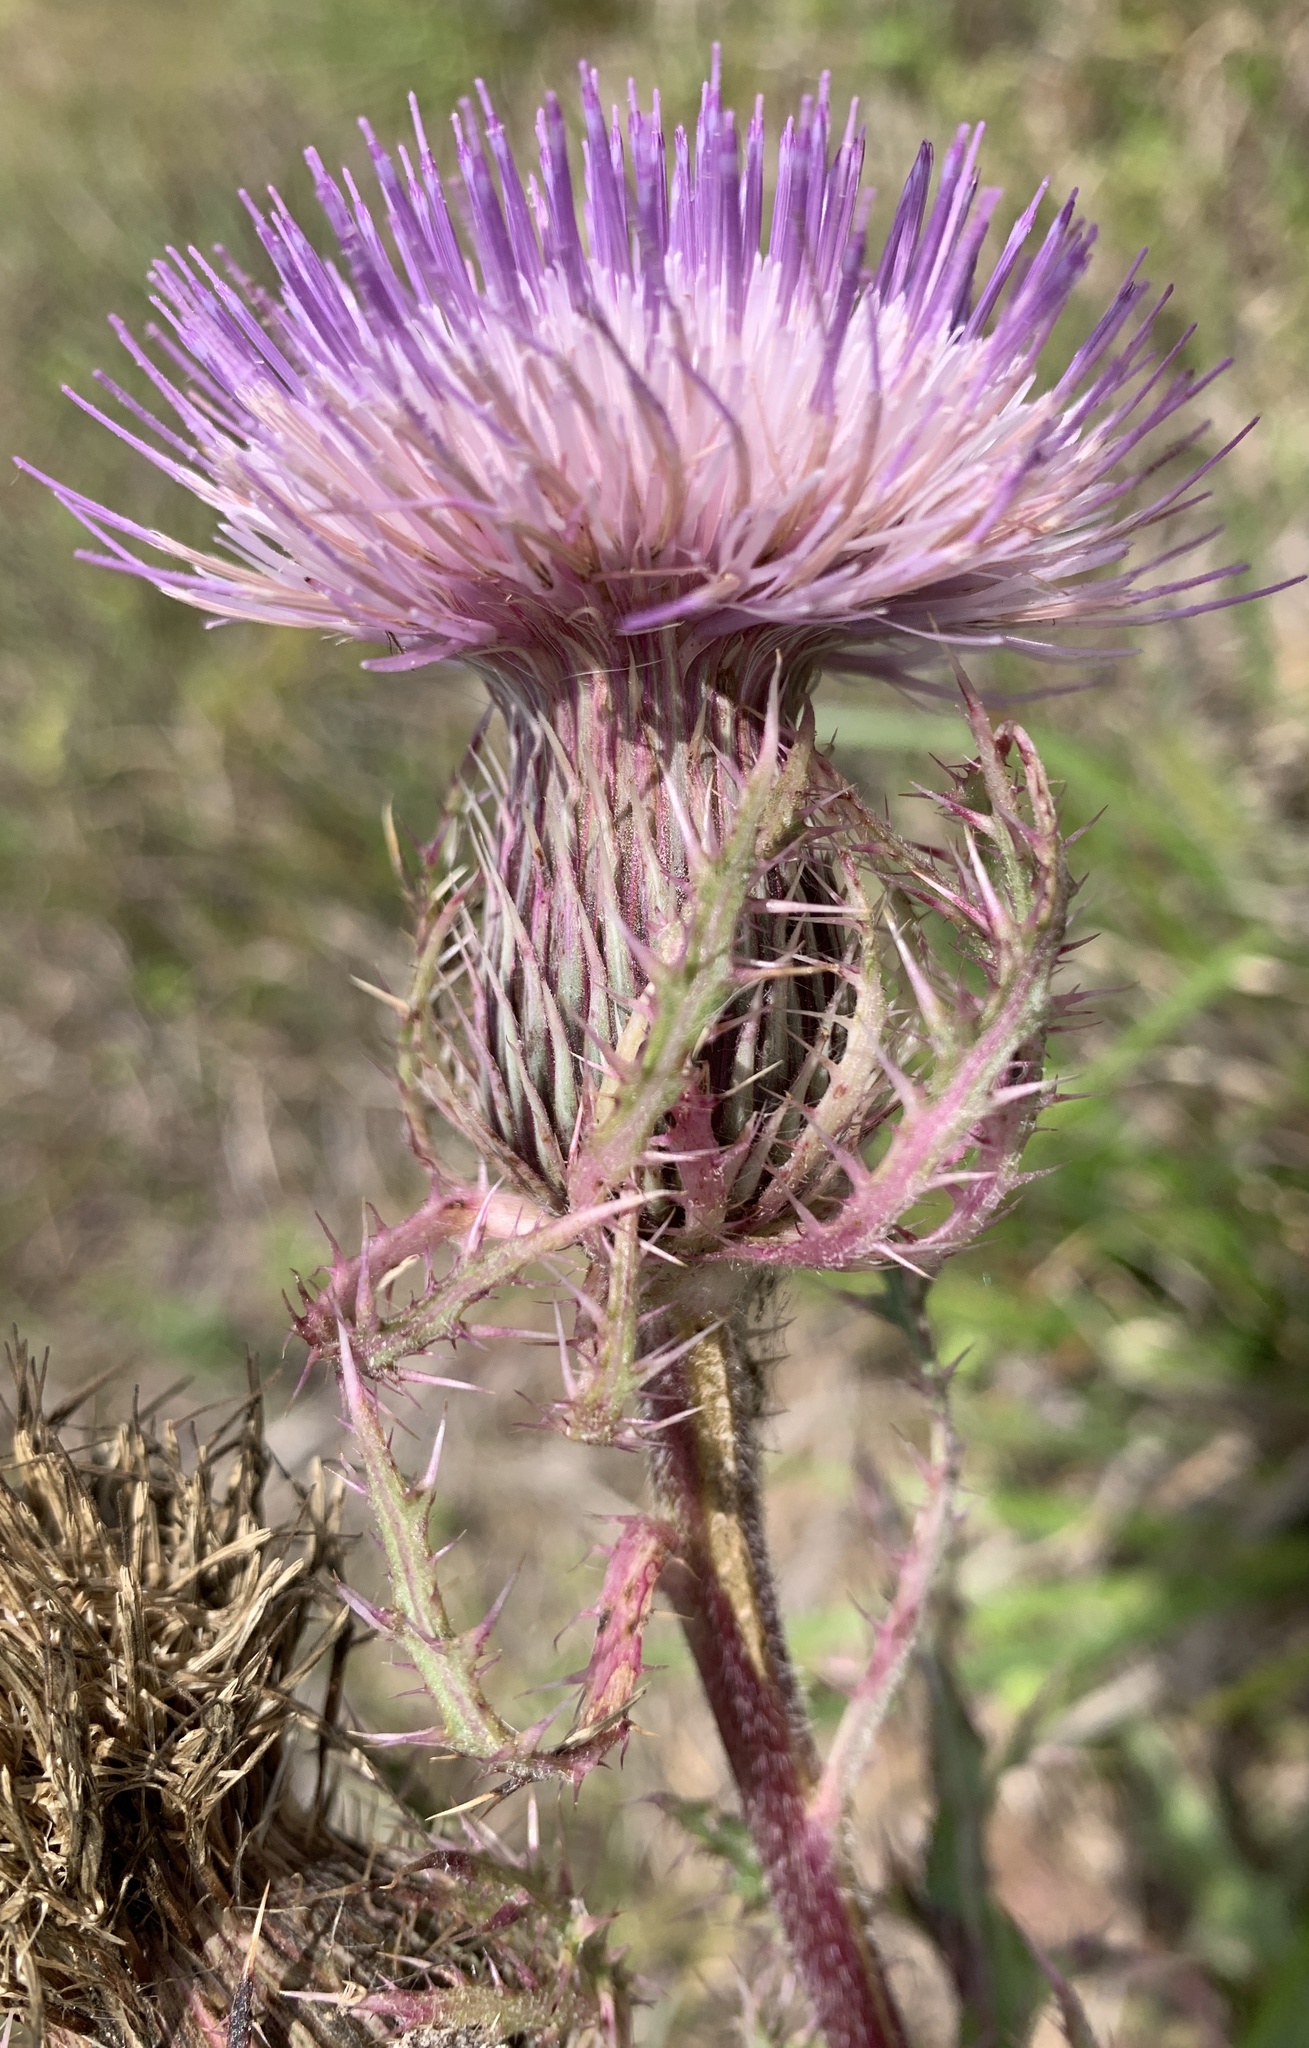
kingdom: Plantae
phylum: Tracheophyta
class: Magnoliopsida
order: Asterales
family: Asteraceae
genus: Cirsium
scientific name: Cirsium horridulum
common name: Bristly thistle
